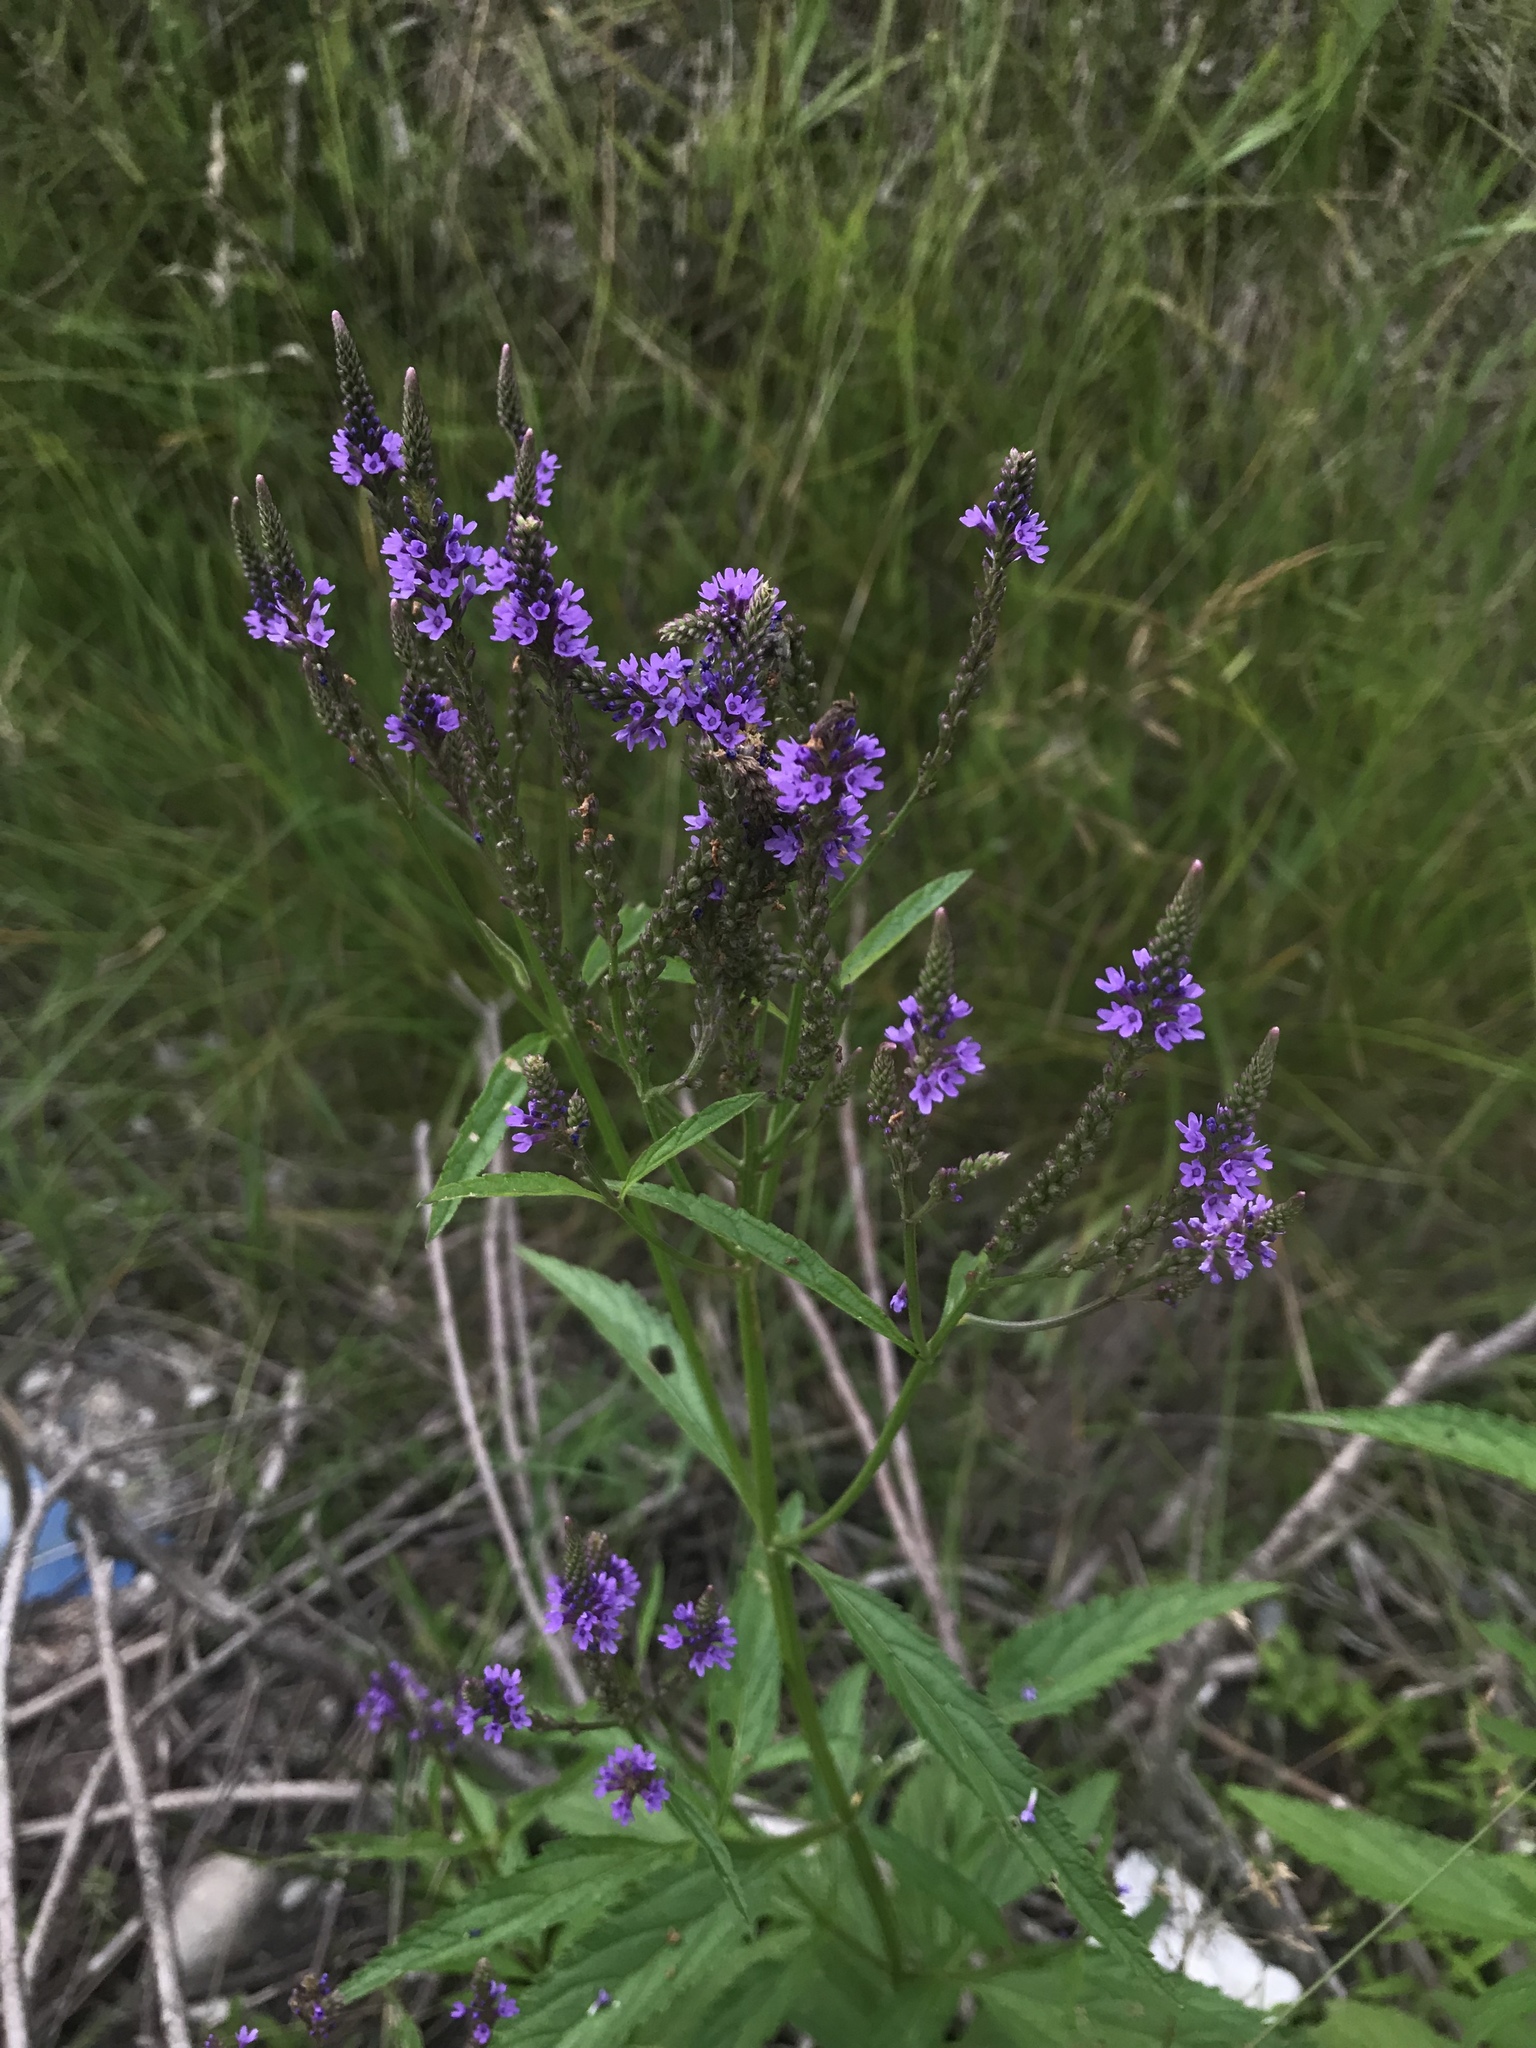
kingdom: Plantae
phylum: Tracheophyta
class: Magnoliopsida
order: Lamiales
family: Verbenaceae
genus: Verbena
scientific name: Verbena hastata
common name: American blue vervain
